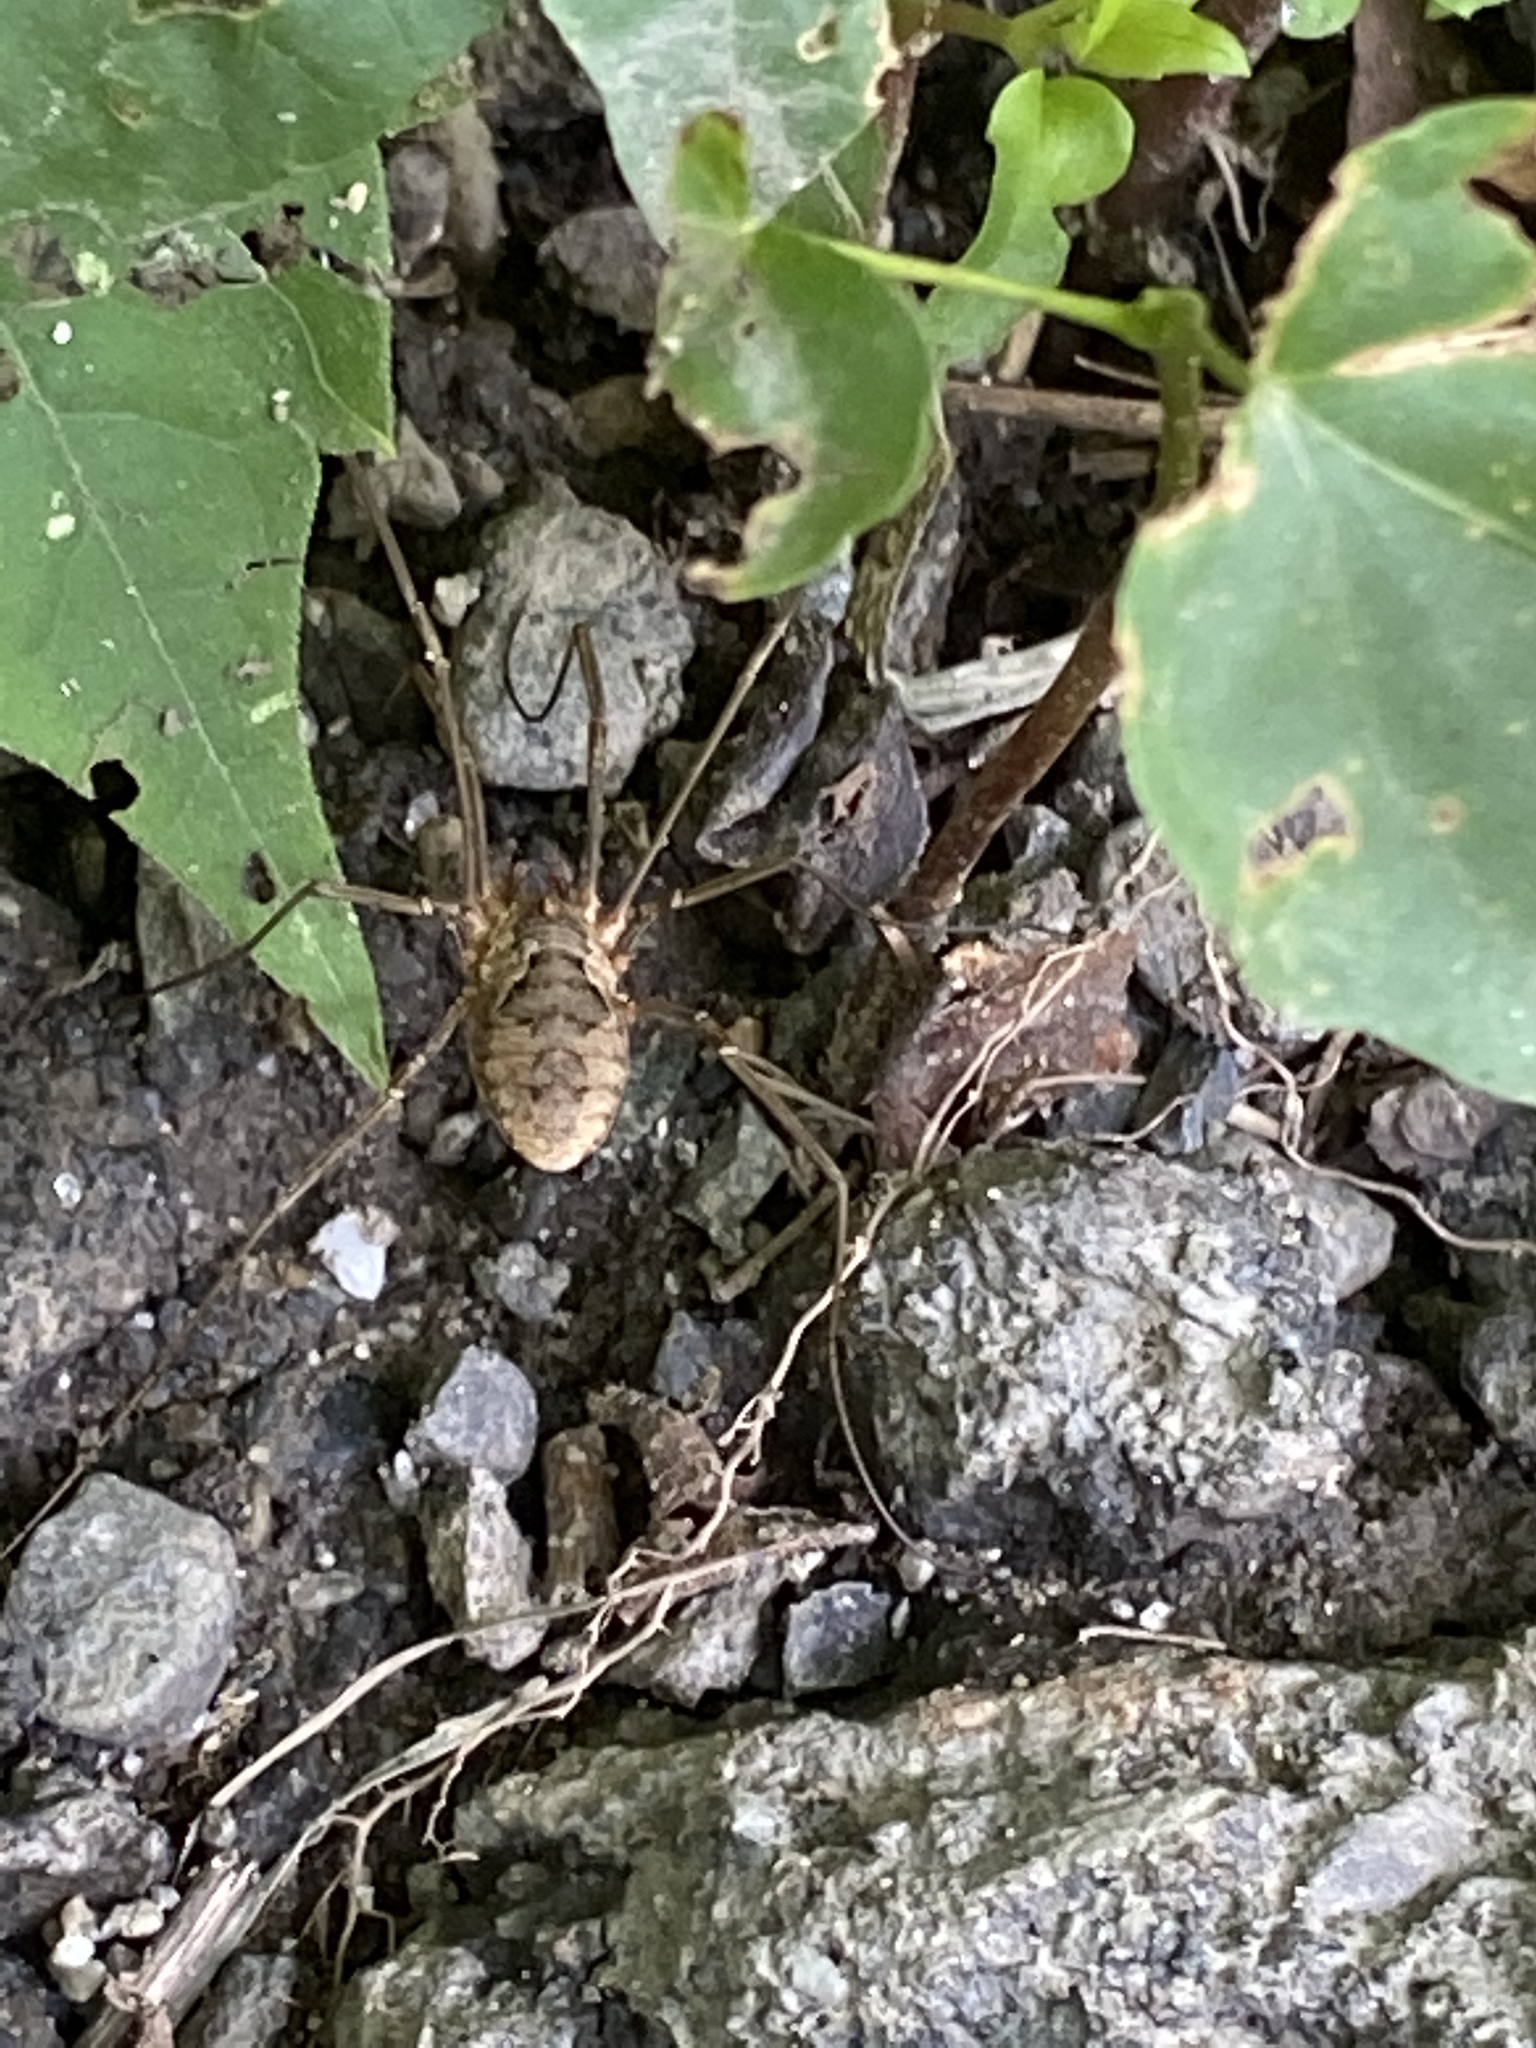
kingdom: Animalia
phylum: Arthropoda
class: Arachnida
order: Opiliones
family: Phalangiidae
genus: Phalangium
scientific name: Phalangium opilio
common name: Daddy longleg
